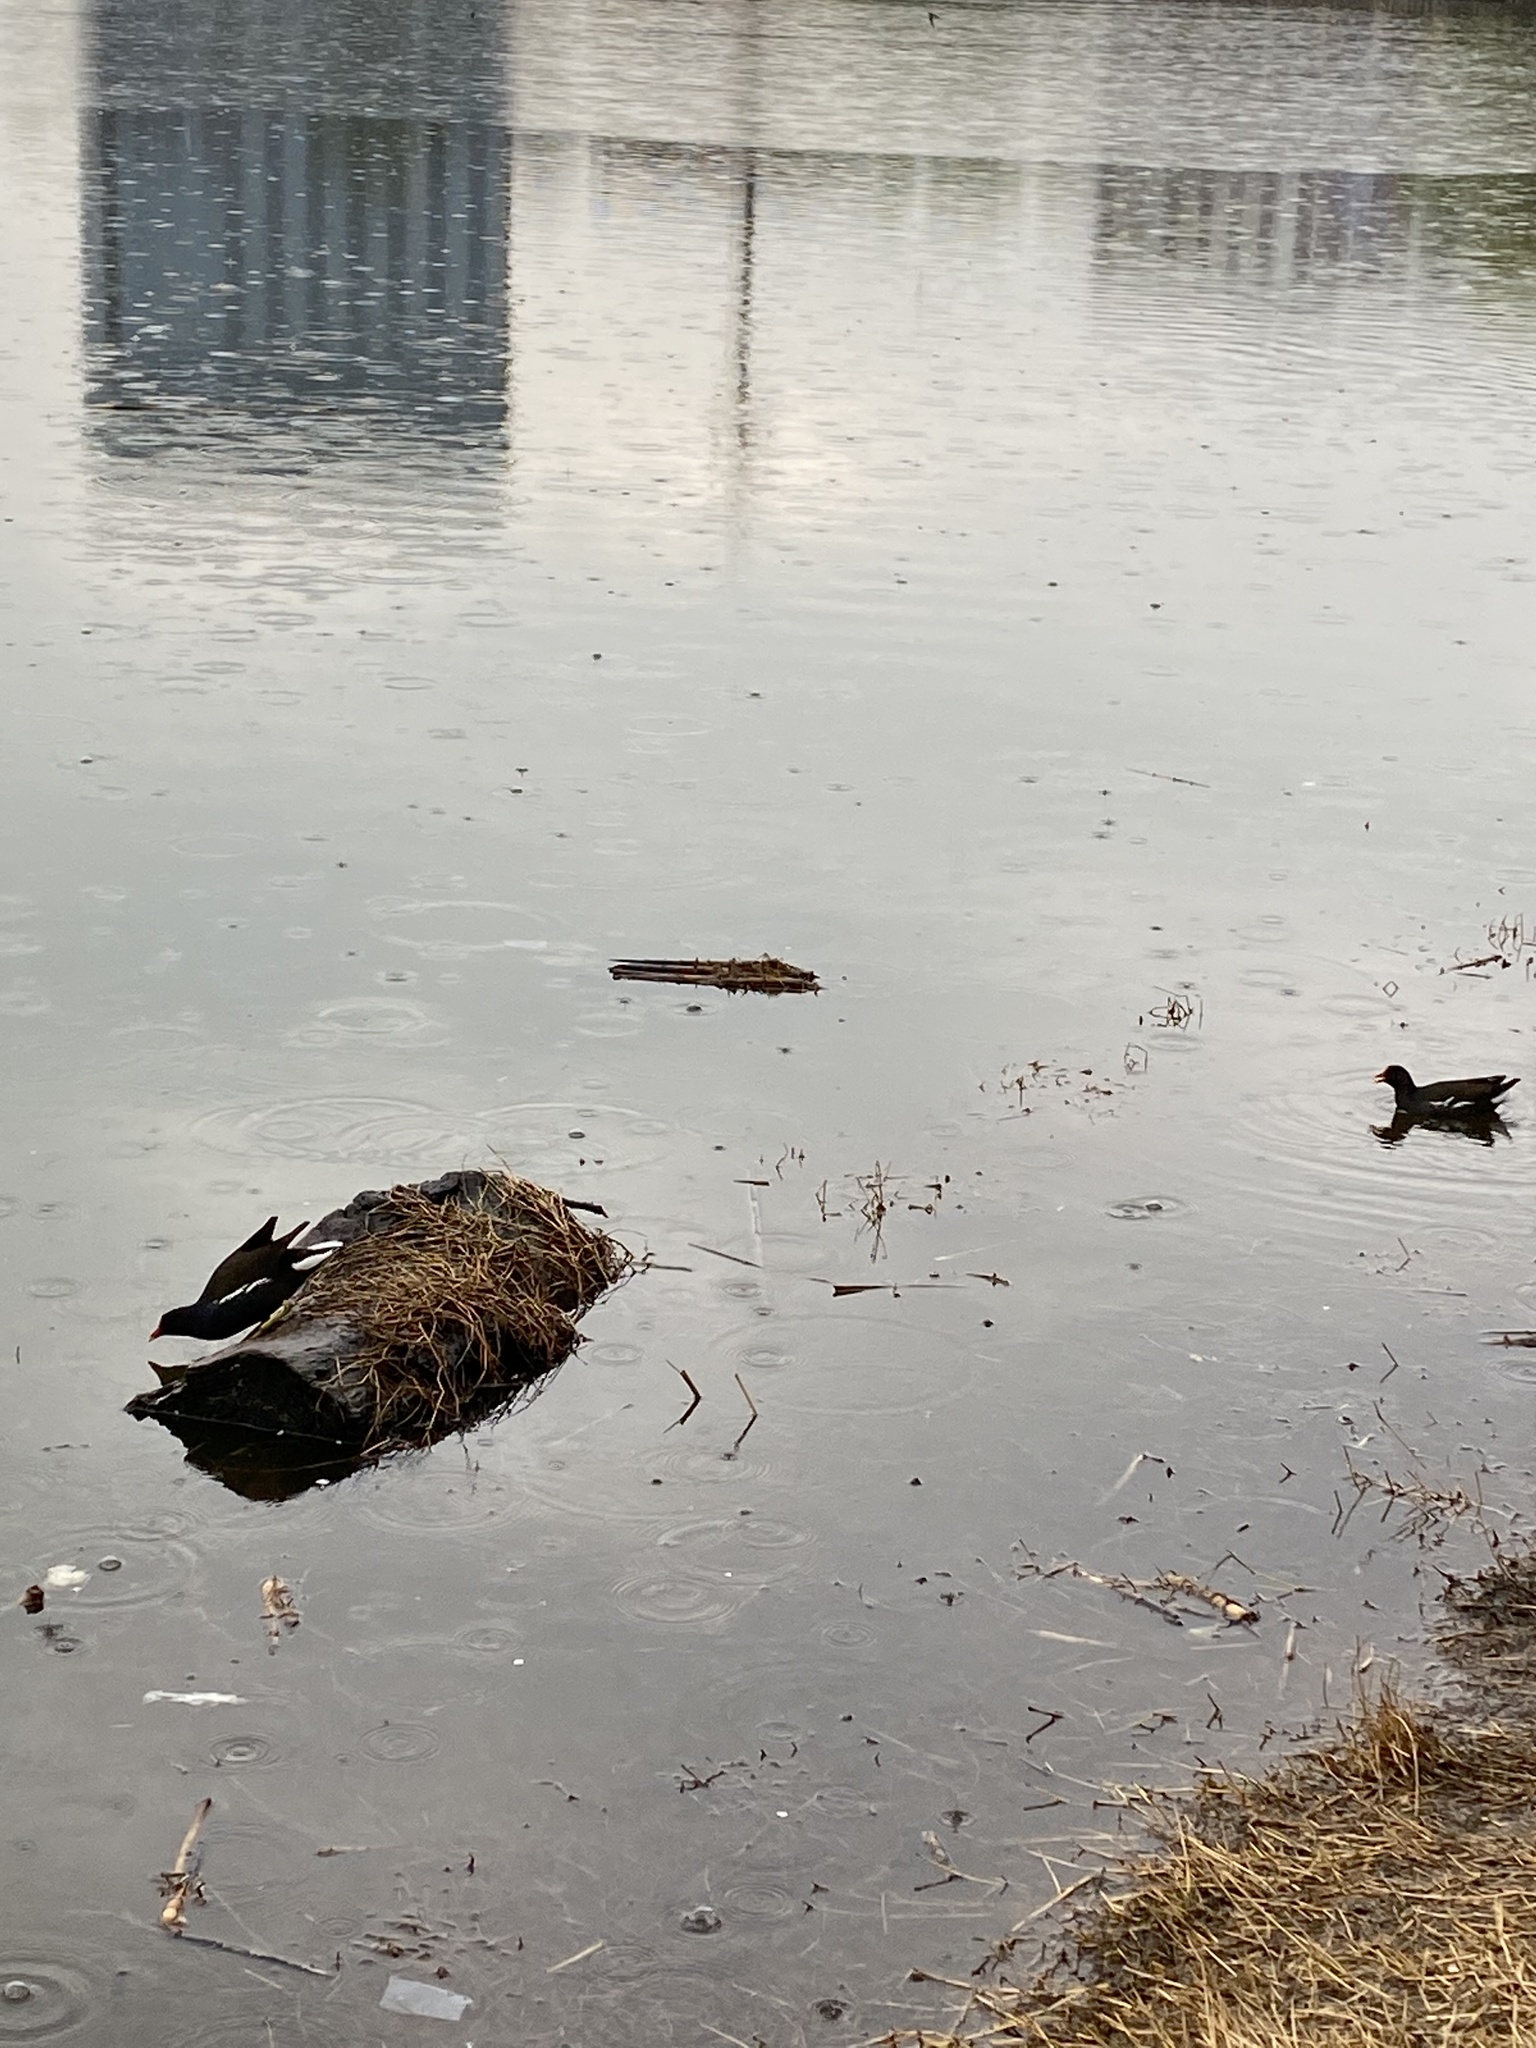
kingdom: Animalia
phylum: Chordata
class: Aves
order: Gruiformes
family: Rallidae
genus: Gallinula
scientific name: Gallinula chloropus
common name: Common moorhen
